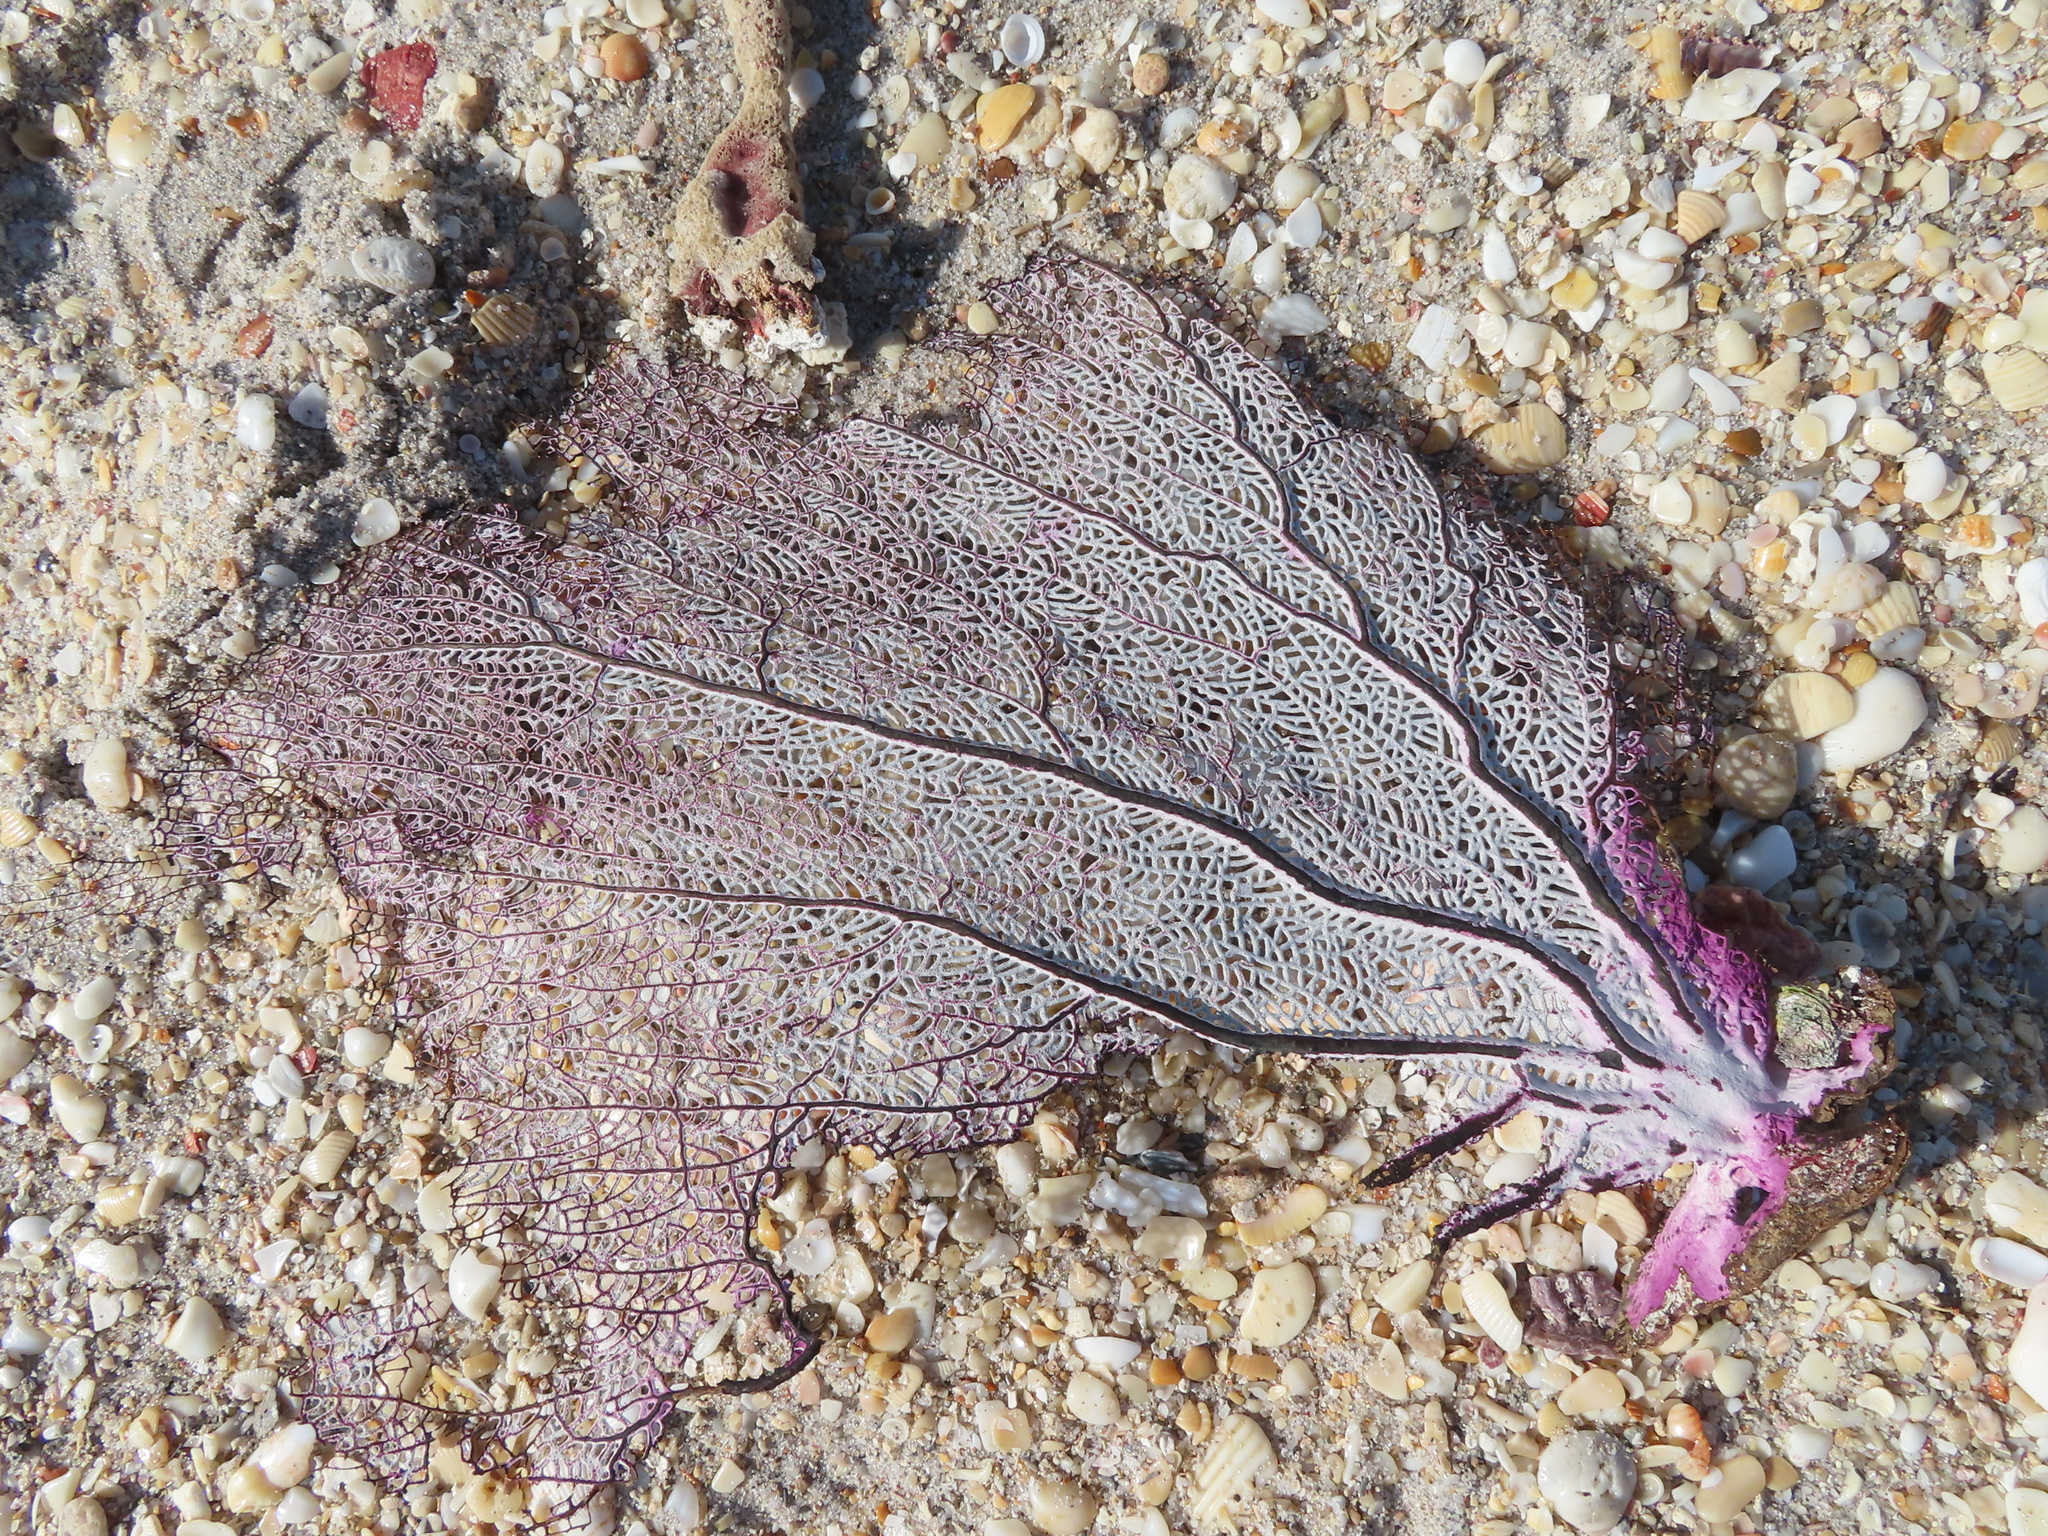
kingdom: Animalia
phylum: Cnidaria
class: Anthozoa
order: Malacalcyonacea
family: Gorgoniidae
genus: Gorgonia
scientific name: Gorgonia ventalina
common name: Common sea fan
